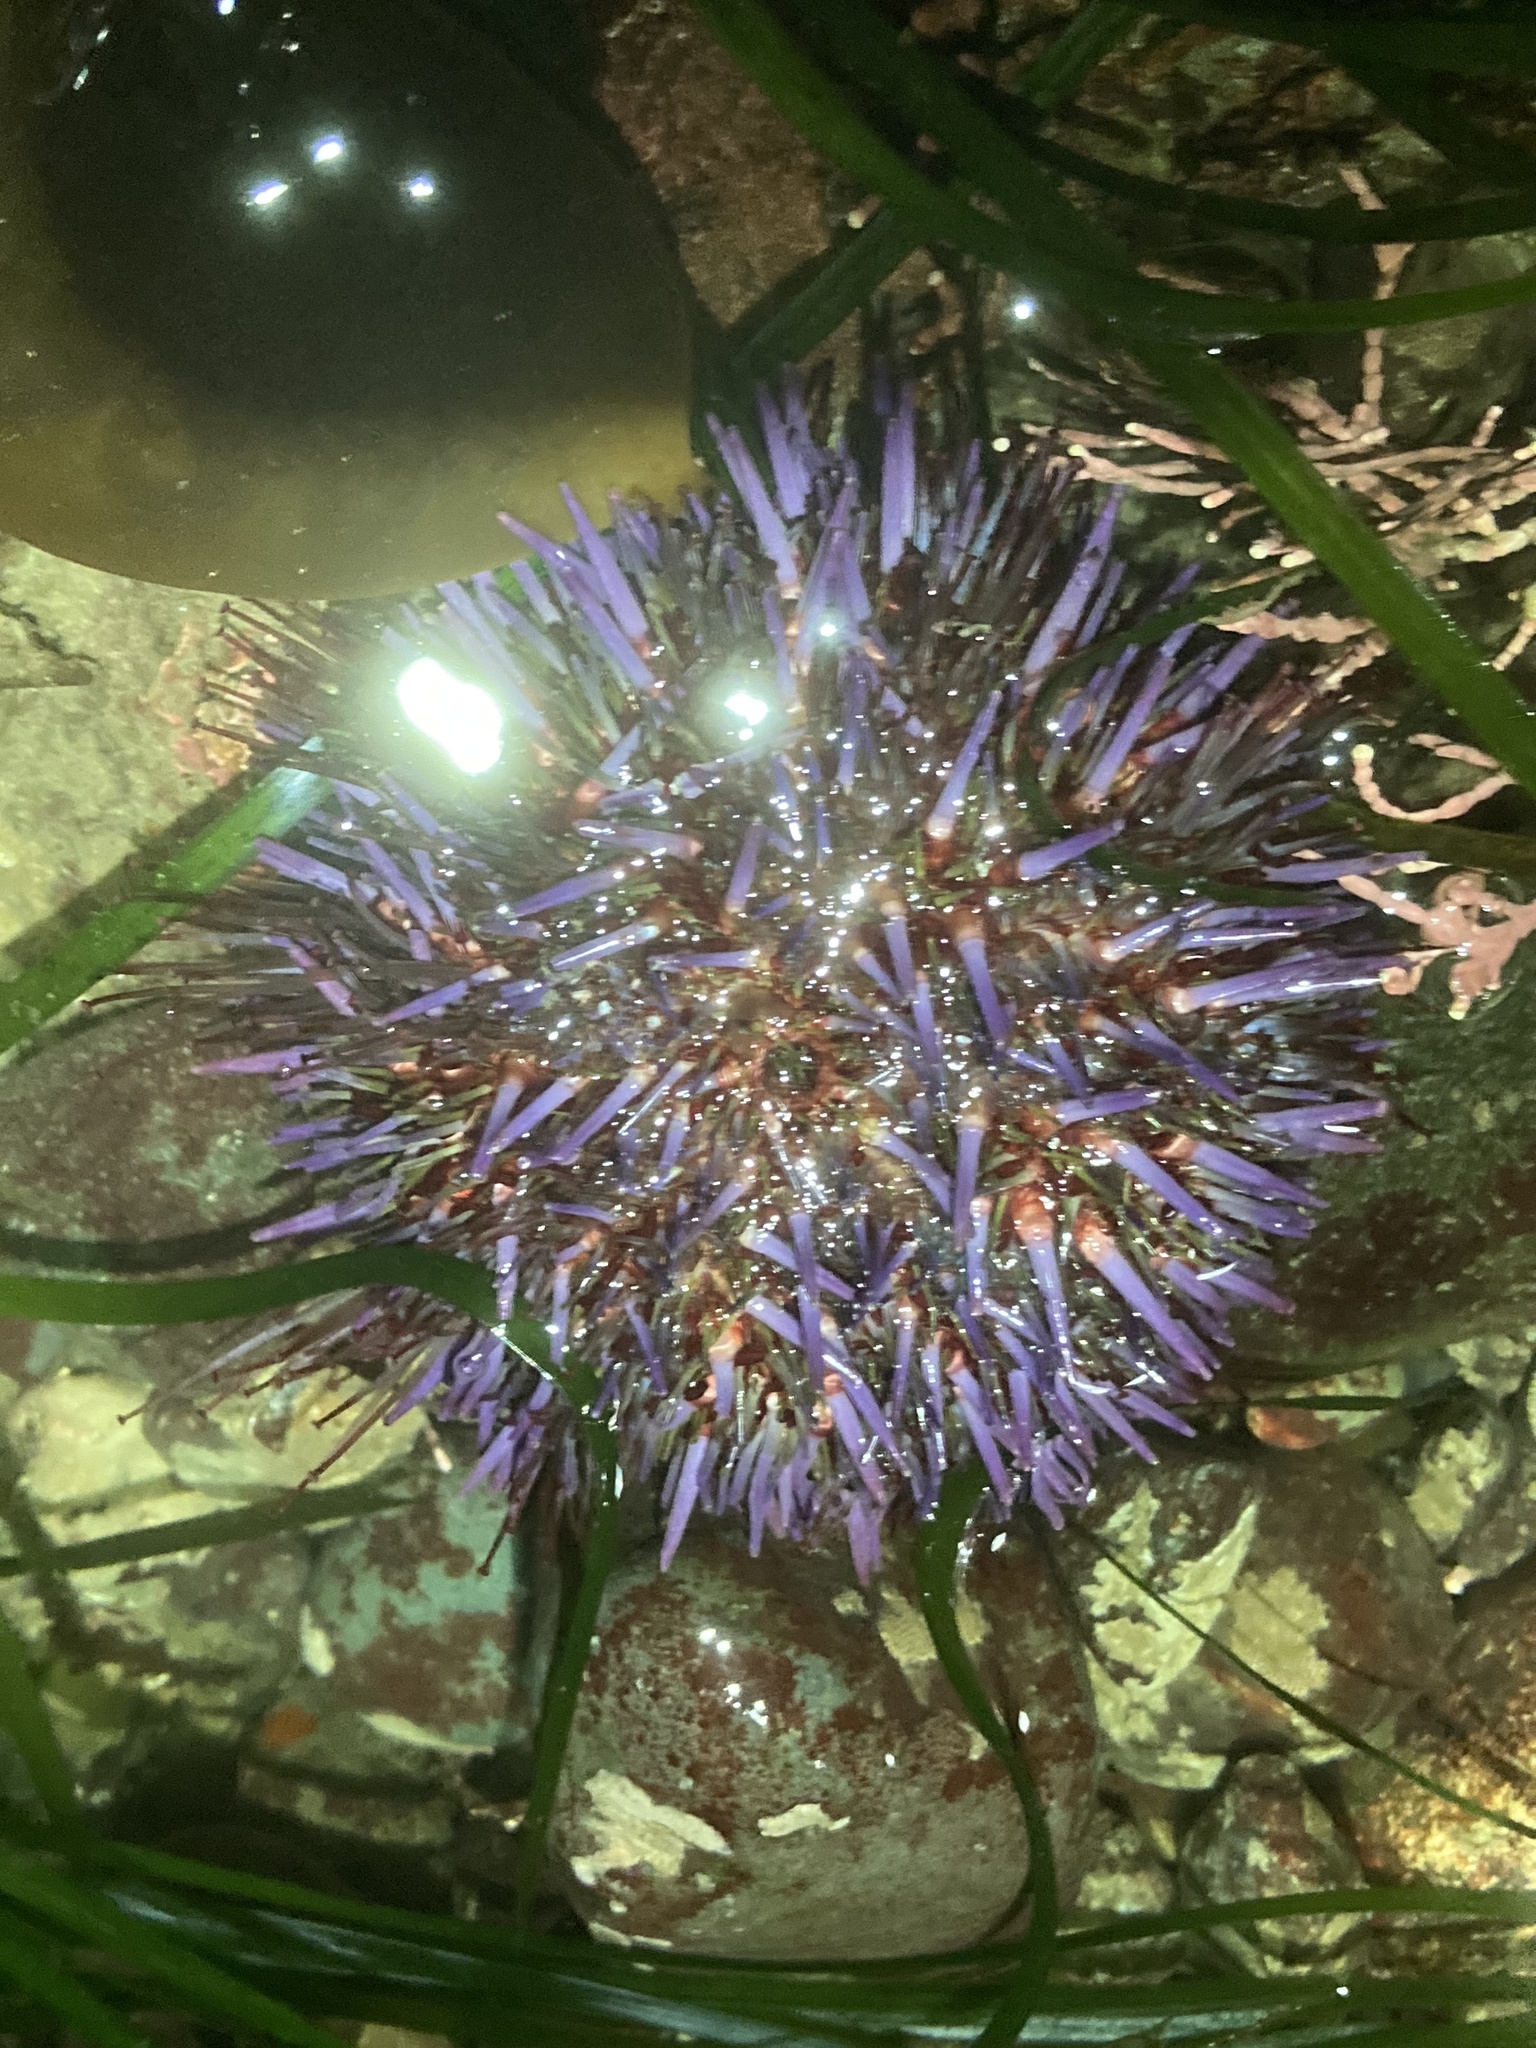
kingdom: Animalia
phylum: Echinodermata
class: Echinoidea
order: Camarodonta
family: Strongylocentrotidae
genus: Strongylocentrotus
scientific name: Strongylocentrotus purpuratus
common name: Purple sea urchin
